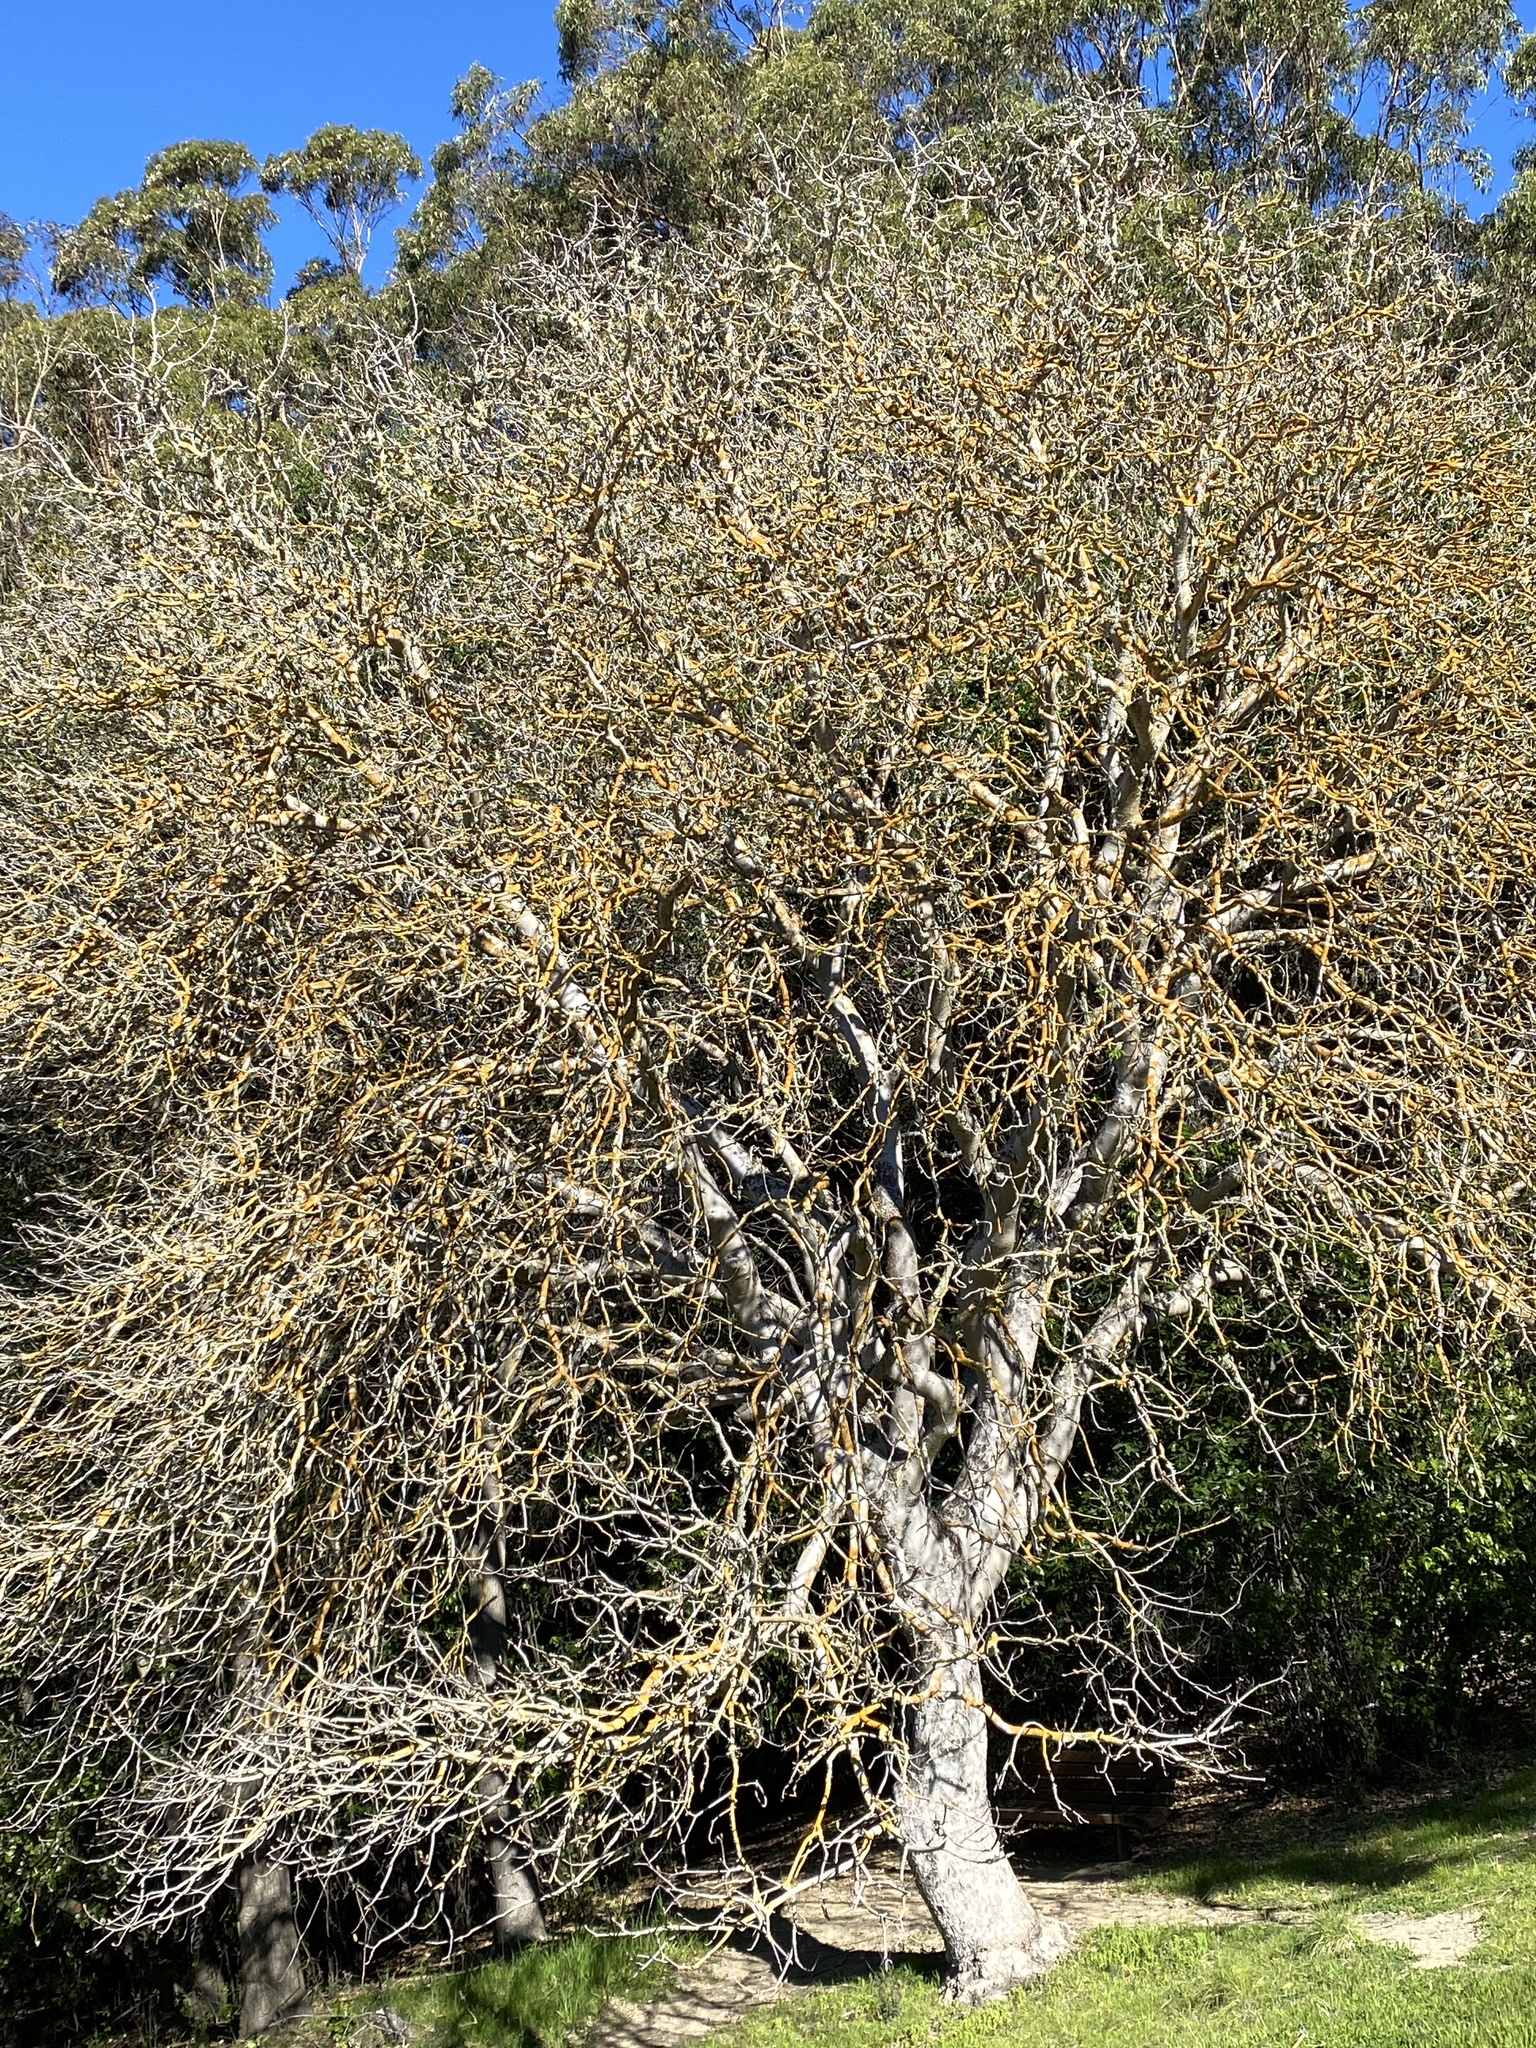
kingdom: Plantae
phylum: Tracheophyta
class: Magnoliopsida
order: Sapindales
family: Sapindaceae
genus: Aesculus
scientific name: Aesculus californica
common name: California buckeye
